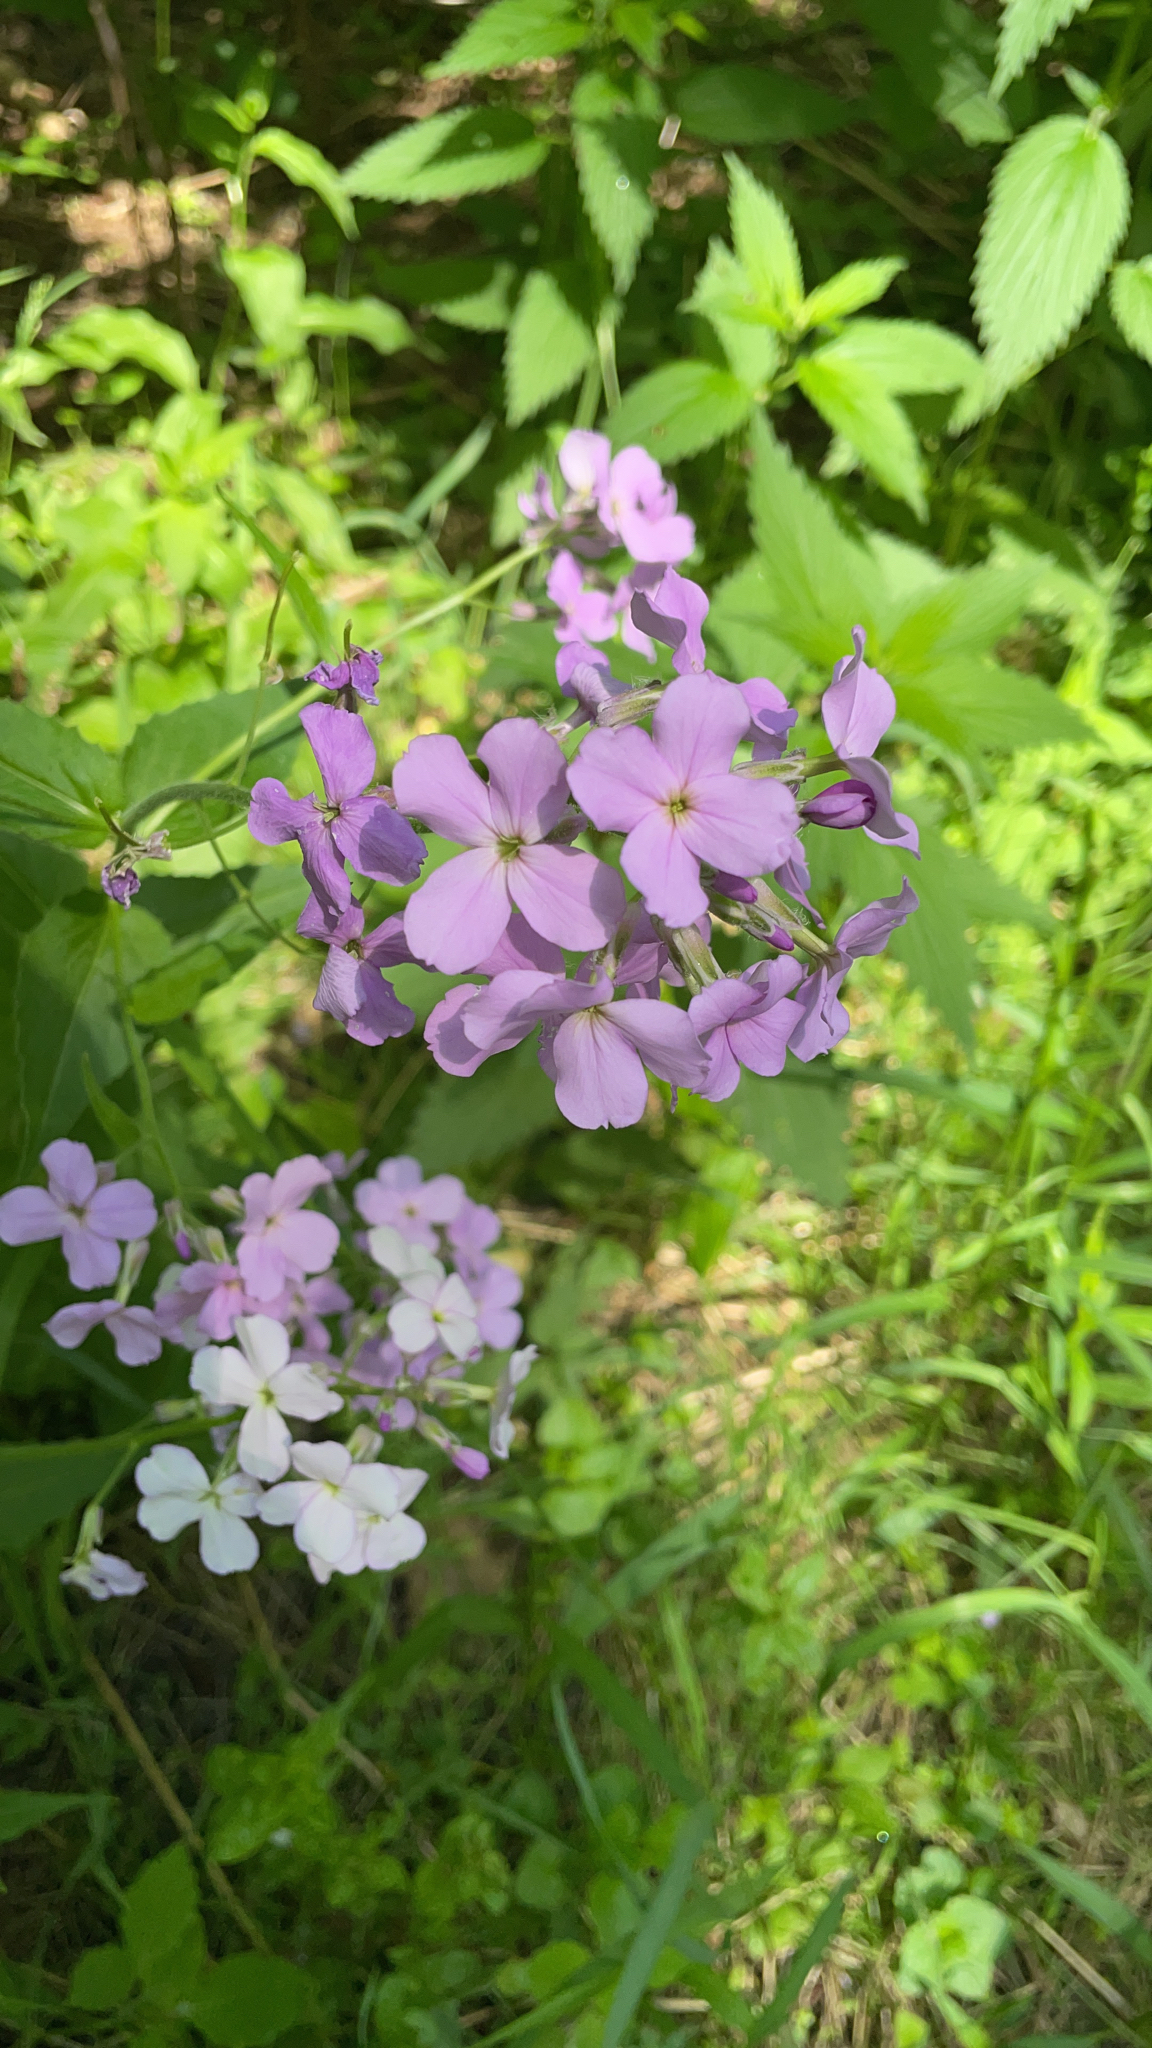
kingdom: Plantae
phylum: Tracheophyta
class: Magnoliopsida
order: Brassicales
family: Brassicaceae
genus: Hesperis
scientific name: Hesperis matronalis
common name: Dame's-violet
